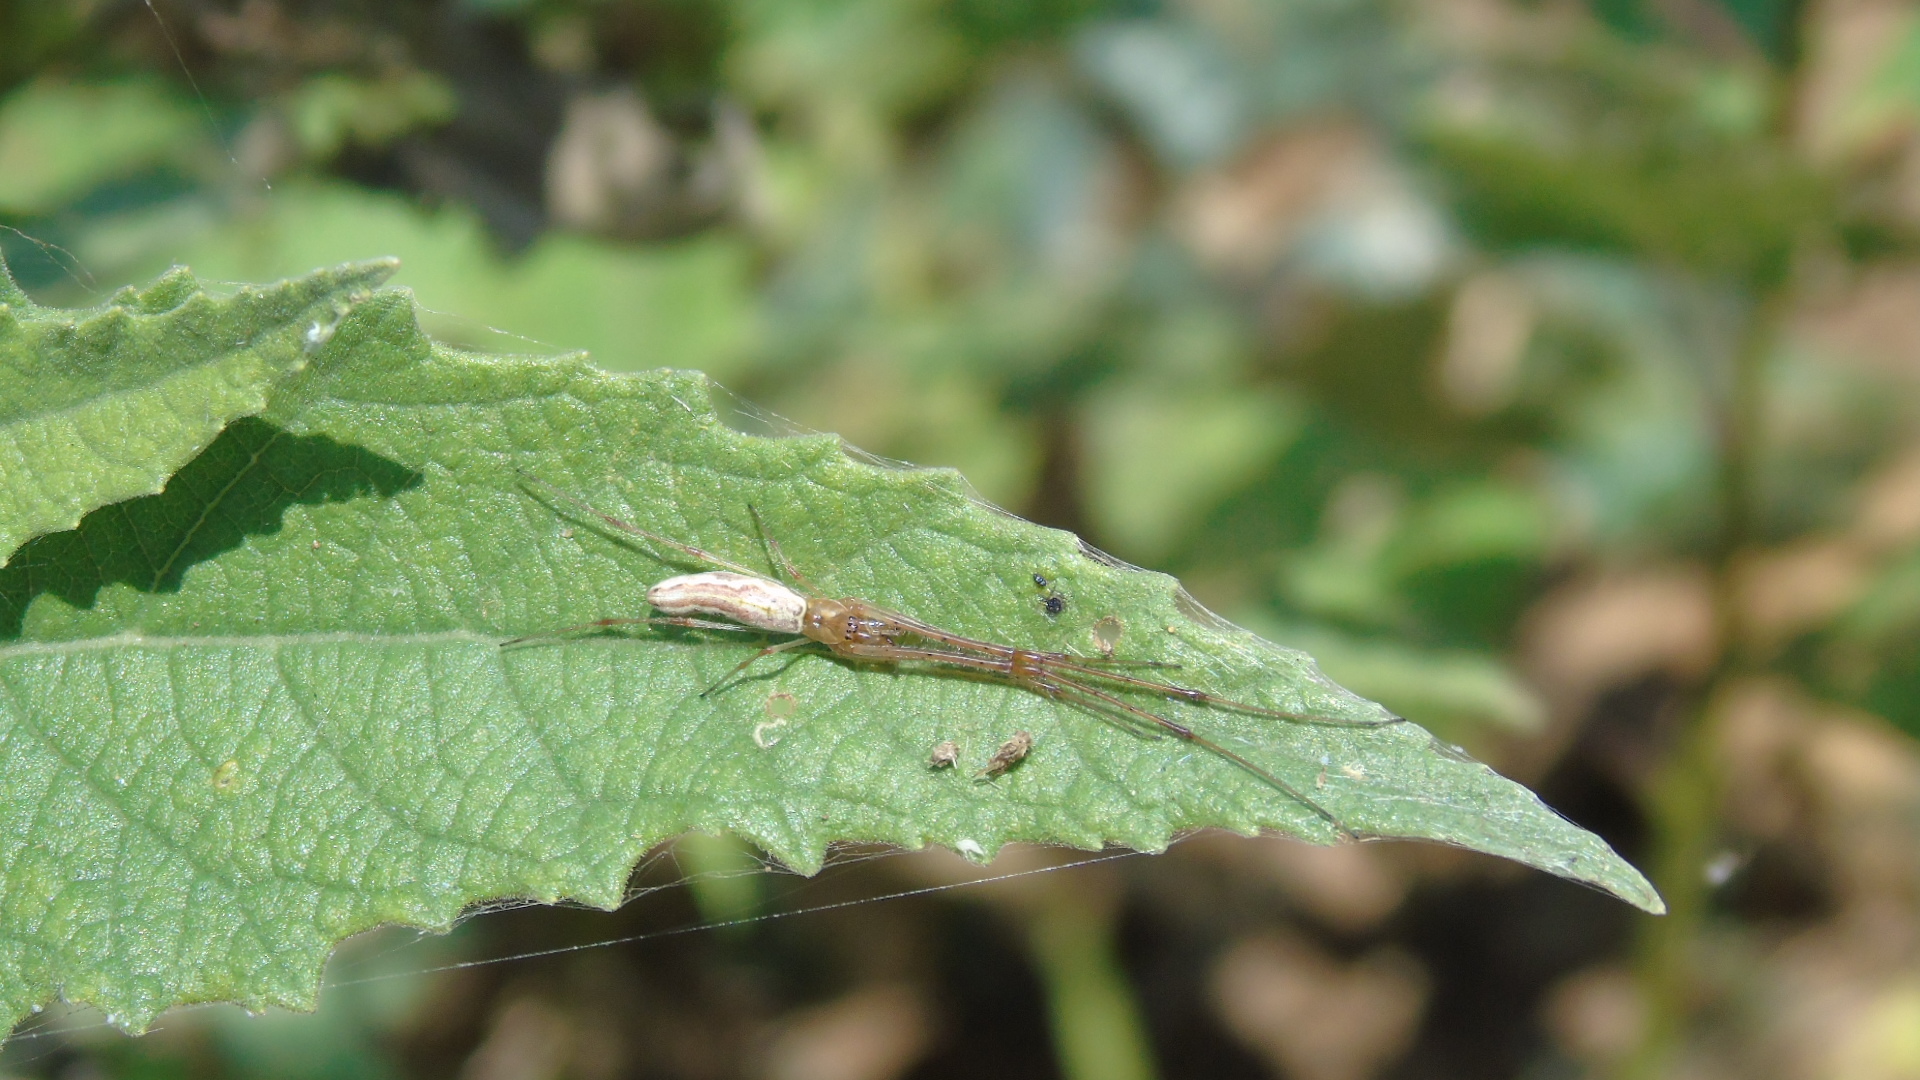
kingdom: Animalia
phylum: Arthropoda
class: Arachnida
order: Araneae
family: Tetragnathidae
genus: Tetragnatha
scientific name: Tetragnatha
